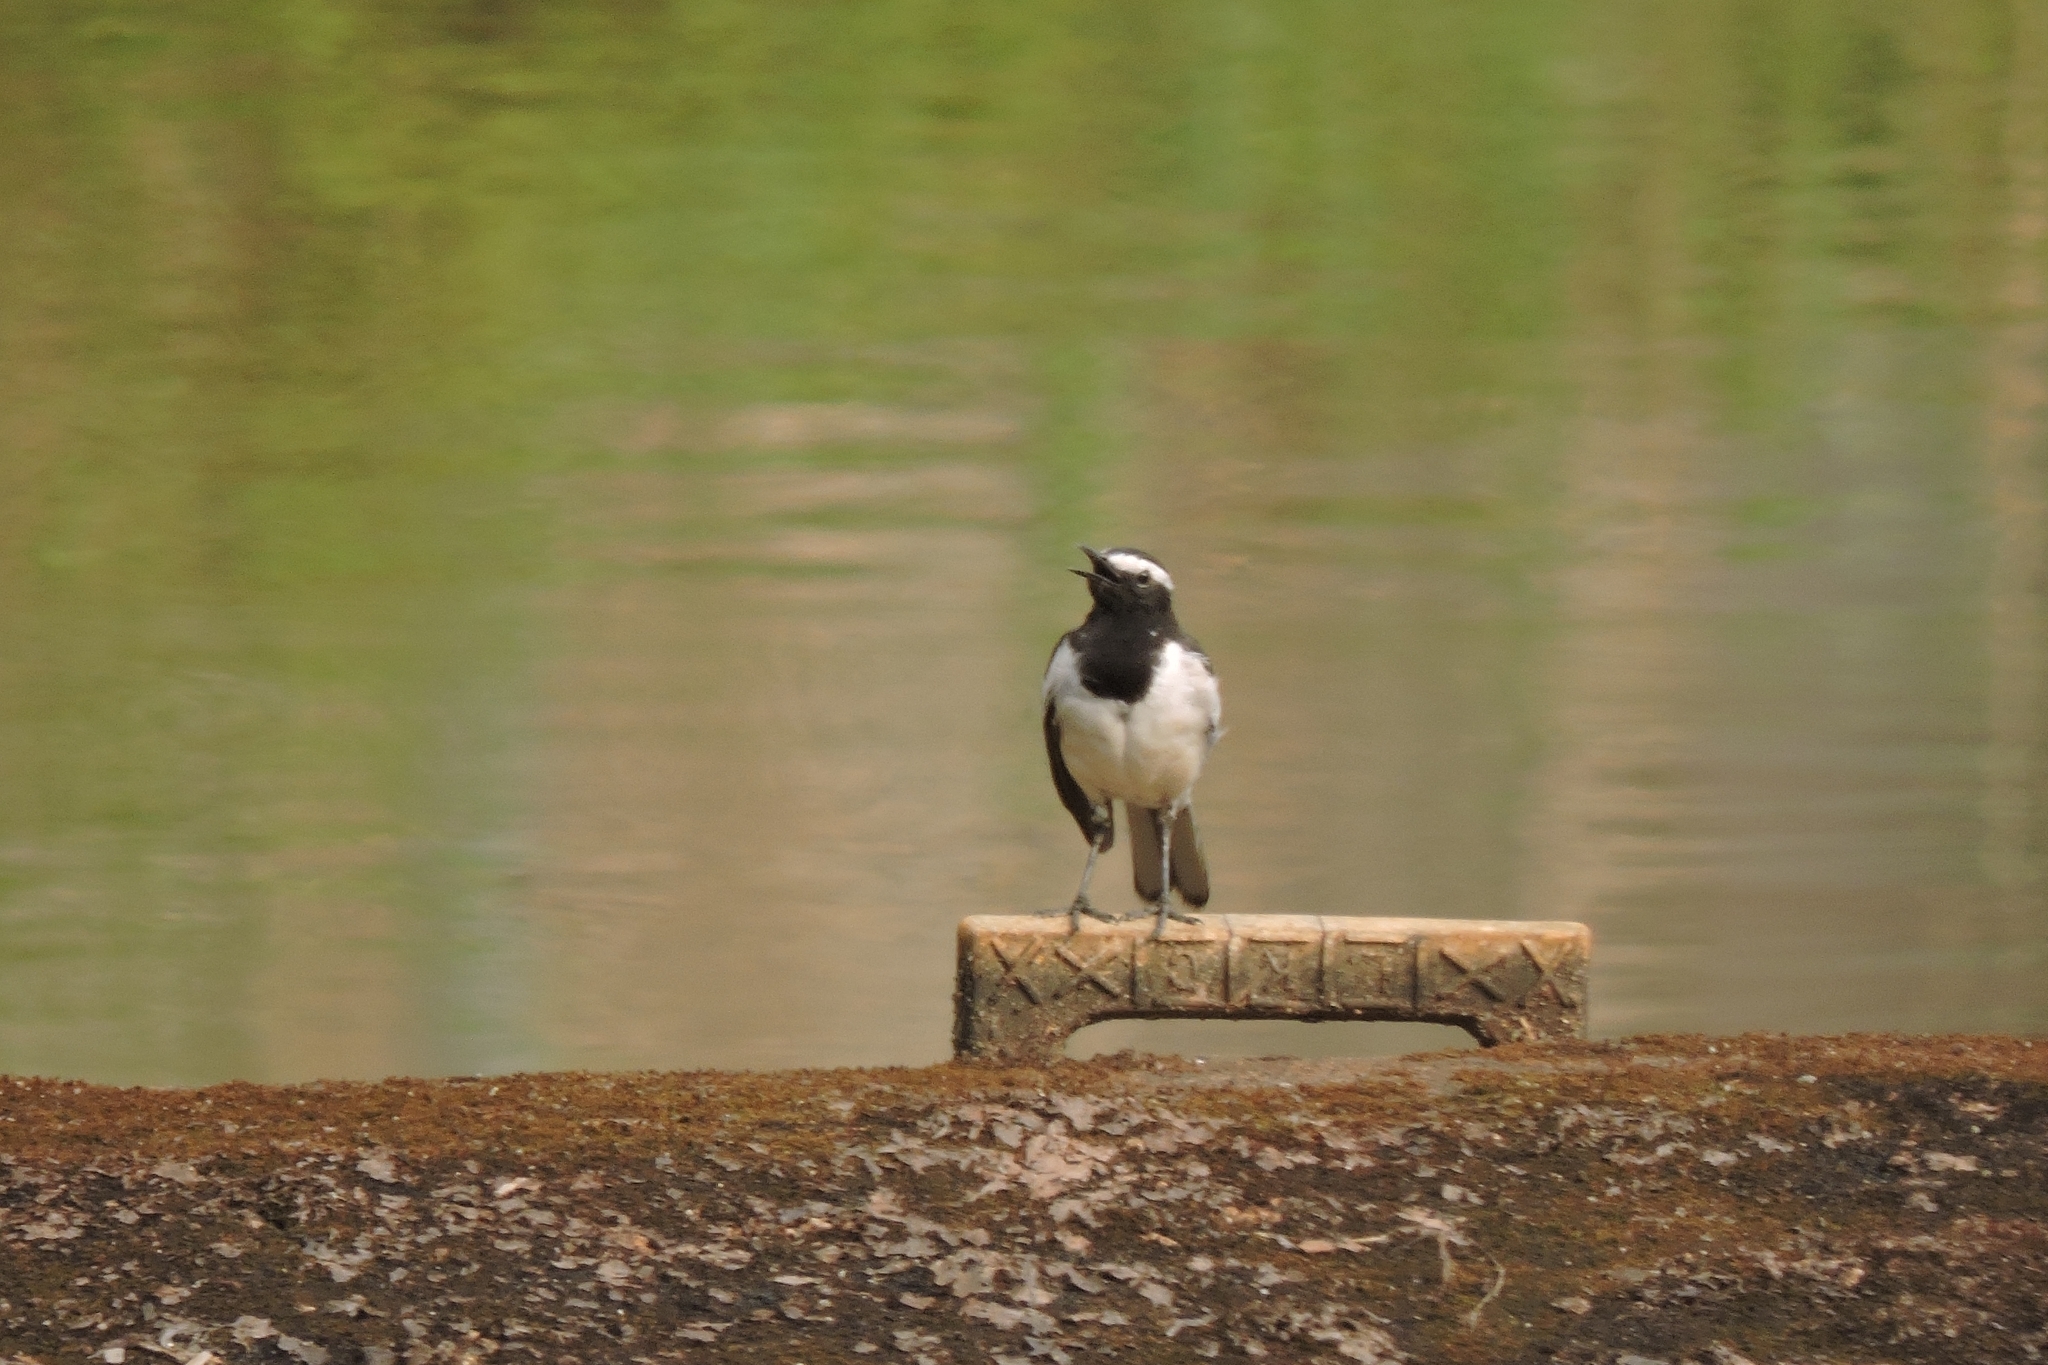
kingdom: Animalia
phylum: Chordata
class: Aves
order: Passeriformes
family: Motacillidae
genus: Motacilla
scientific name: Motacilla maderaspatensis
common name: White-browed wagtail
